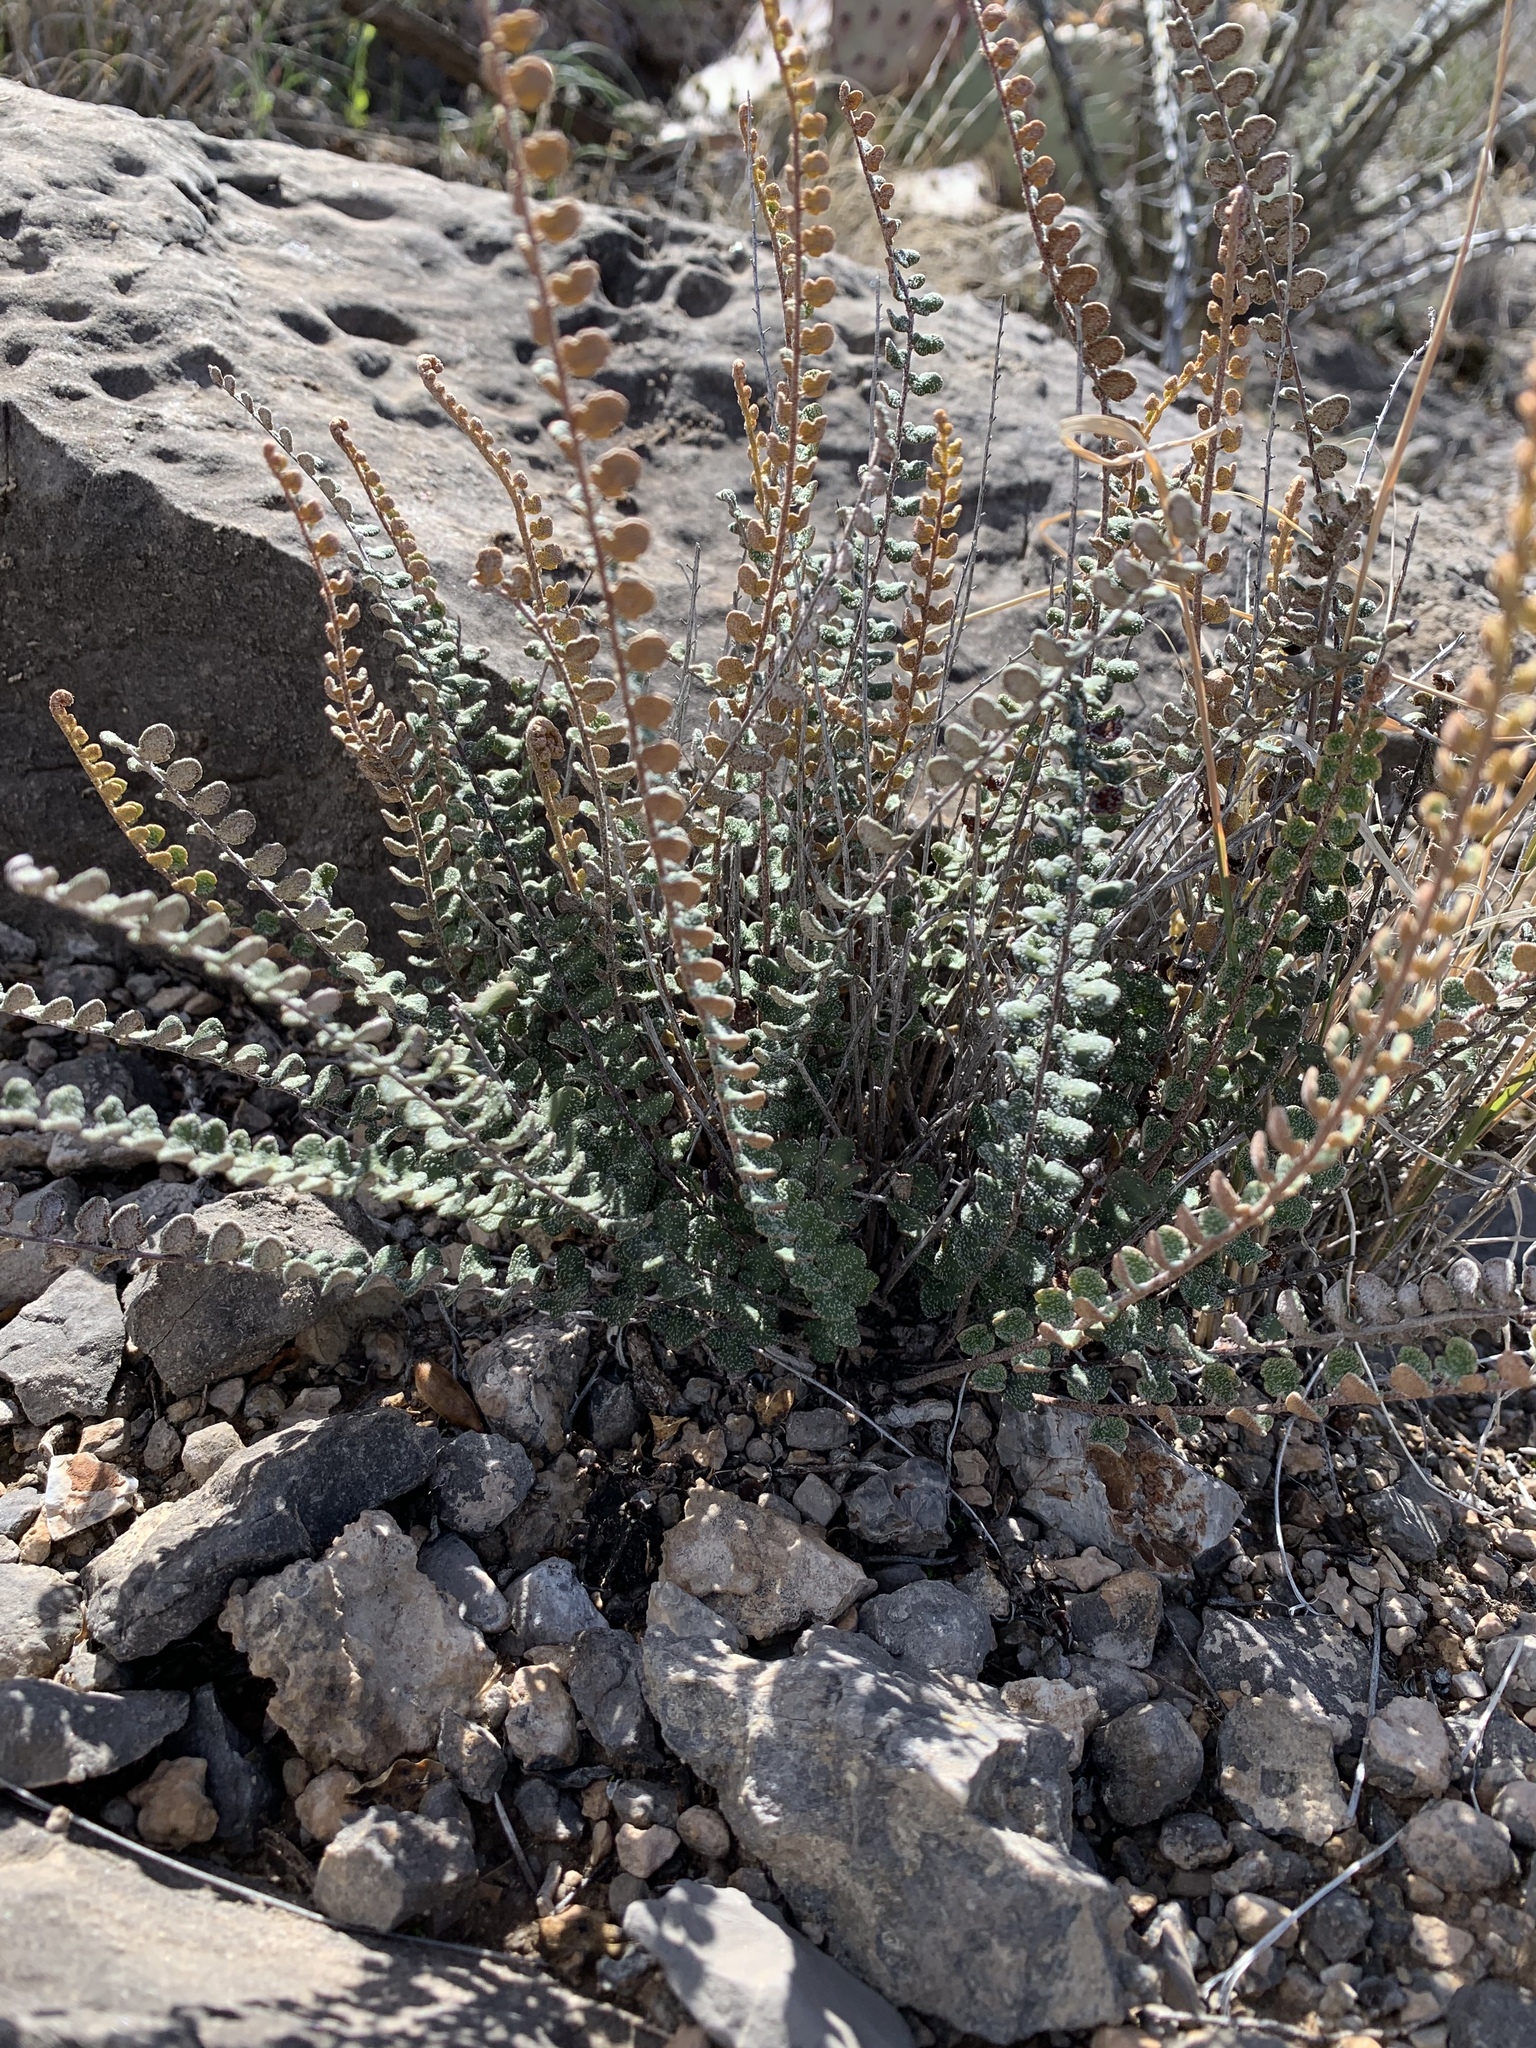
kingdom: Plantae
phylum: Tracheophyta
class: Polypodiopsida
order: Polypodiales
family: Pteridaceae
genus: Astrolepis
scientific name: Astrolepis cochisensis
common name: Scaly cloak fern
